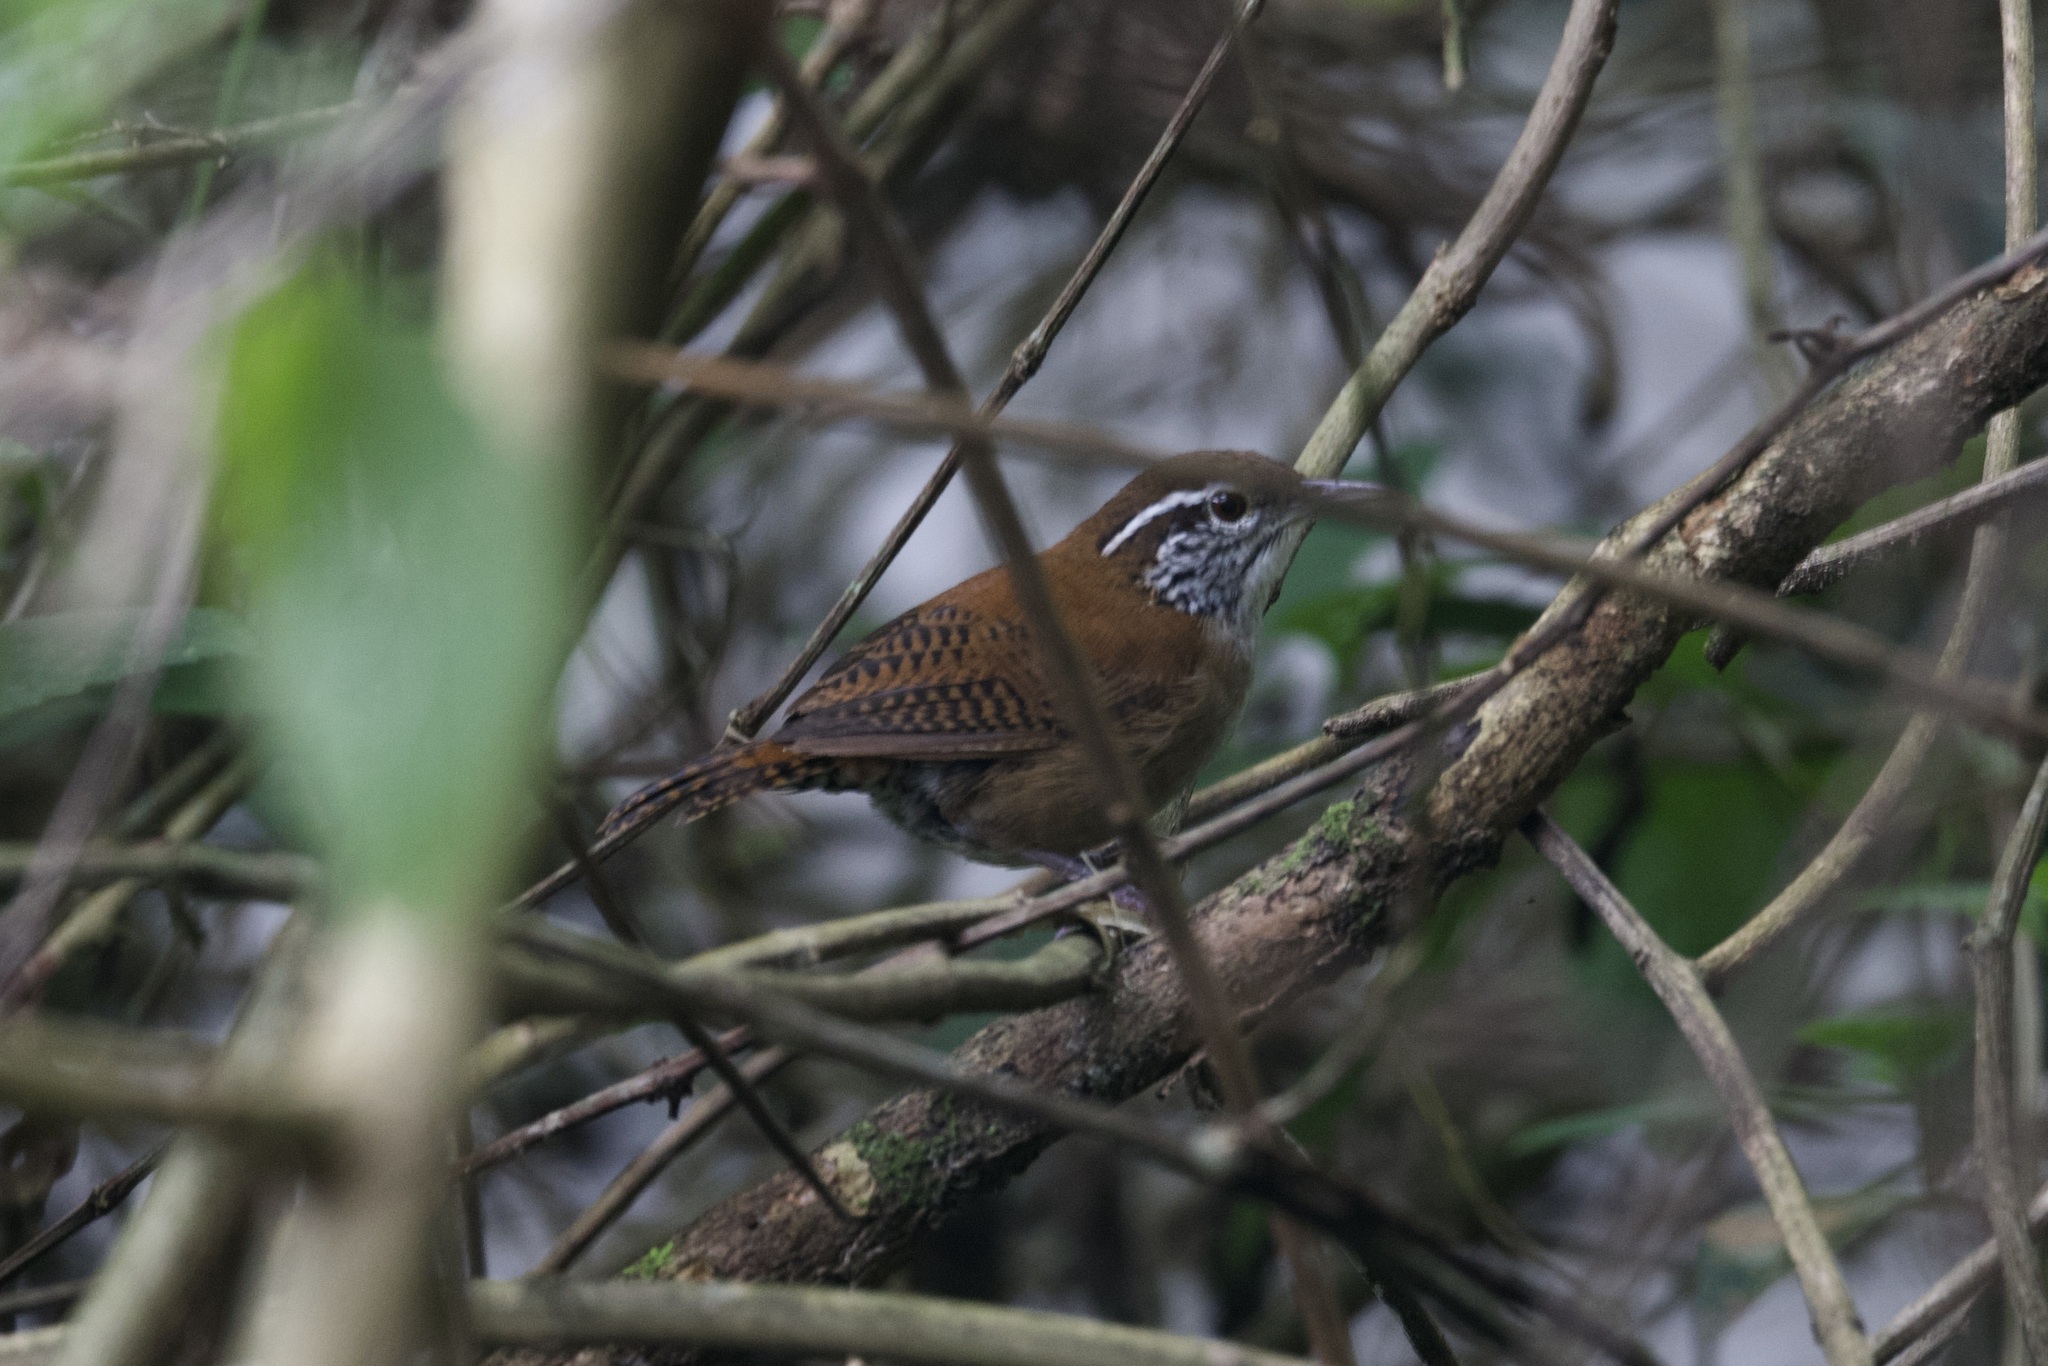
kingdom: Animalia
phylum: Chordata
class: Aves
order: Passeriformes
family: Troglodytidae
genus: Thryophilus
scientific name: Thryophilus rufalbus
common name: Rufous-and-white wren
